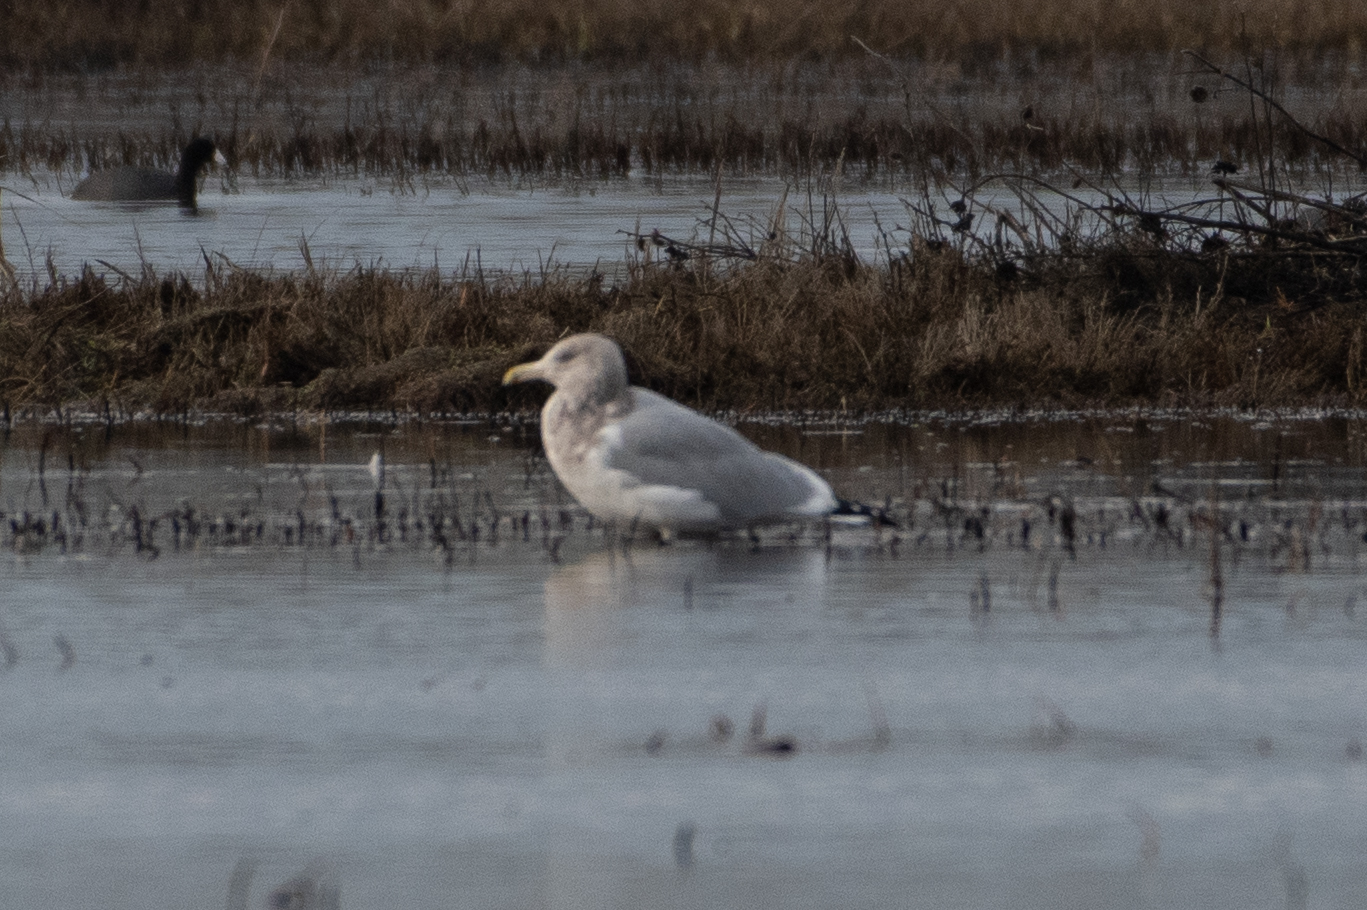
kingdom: Animalia
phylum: Chordata
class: Aves
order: Charadriiformes
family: Laridae
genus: Larus
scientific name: Larus argentatus
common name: Herring gull
